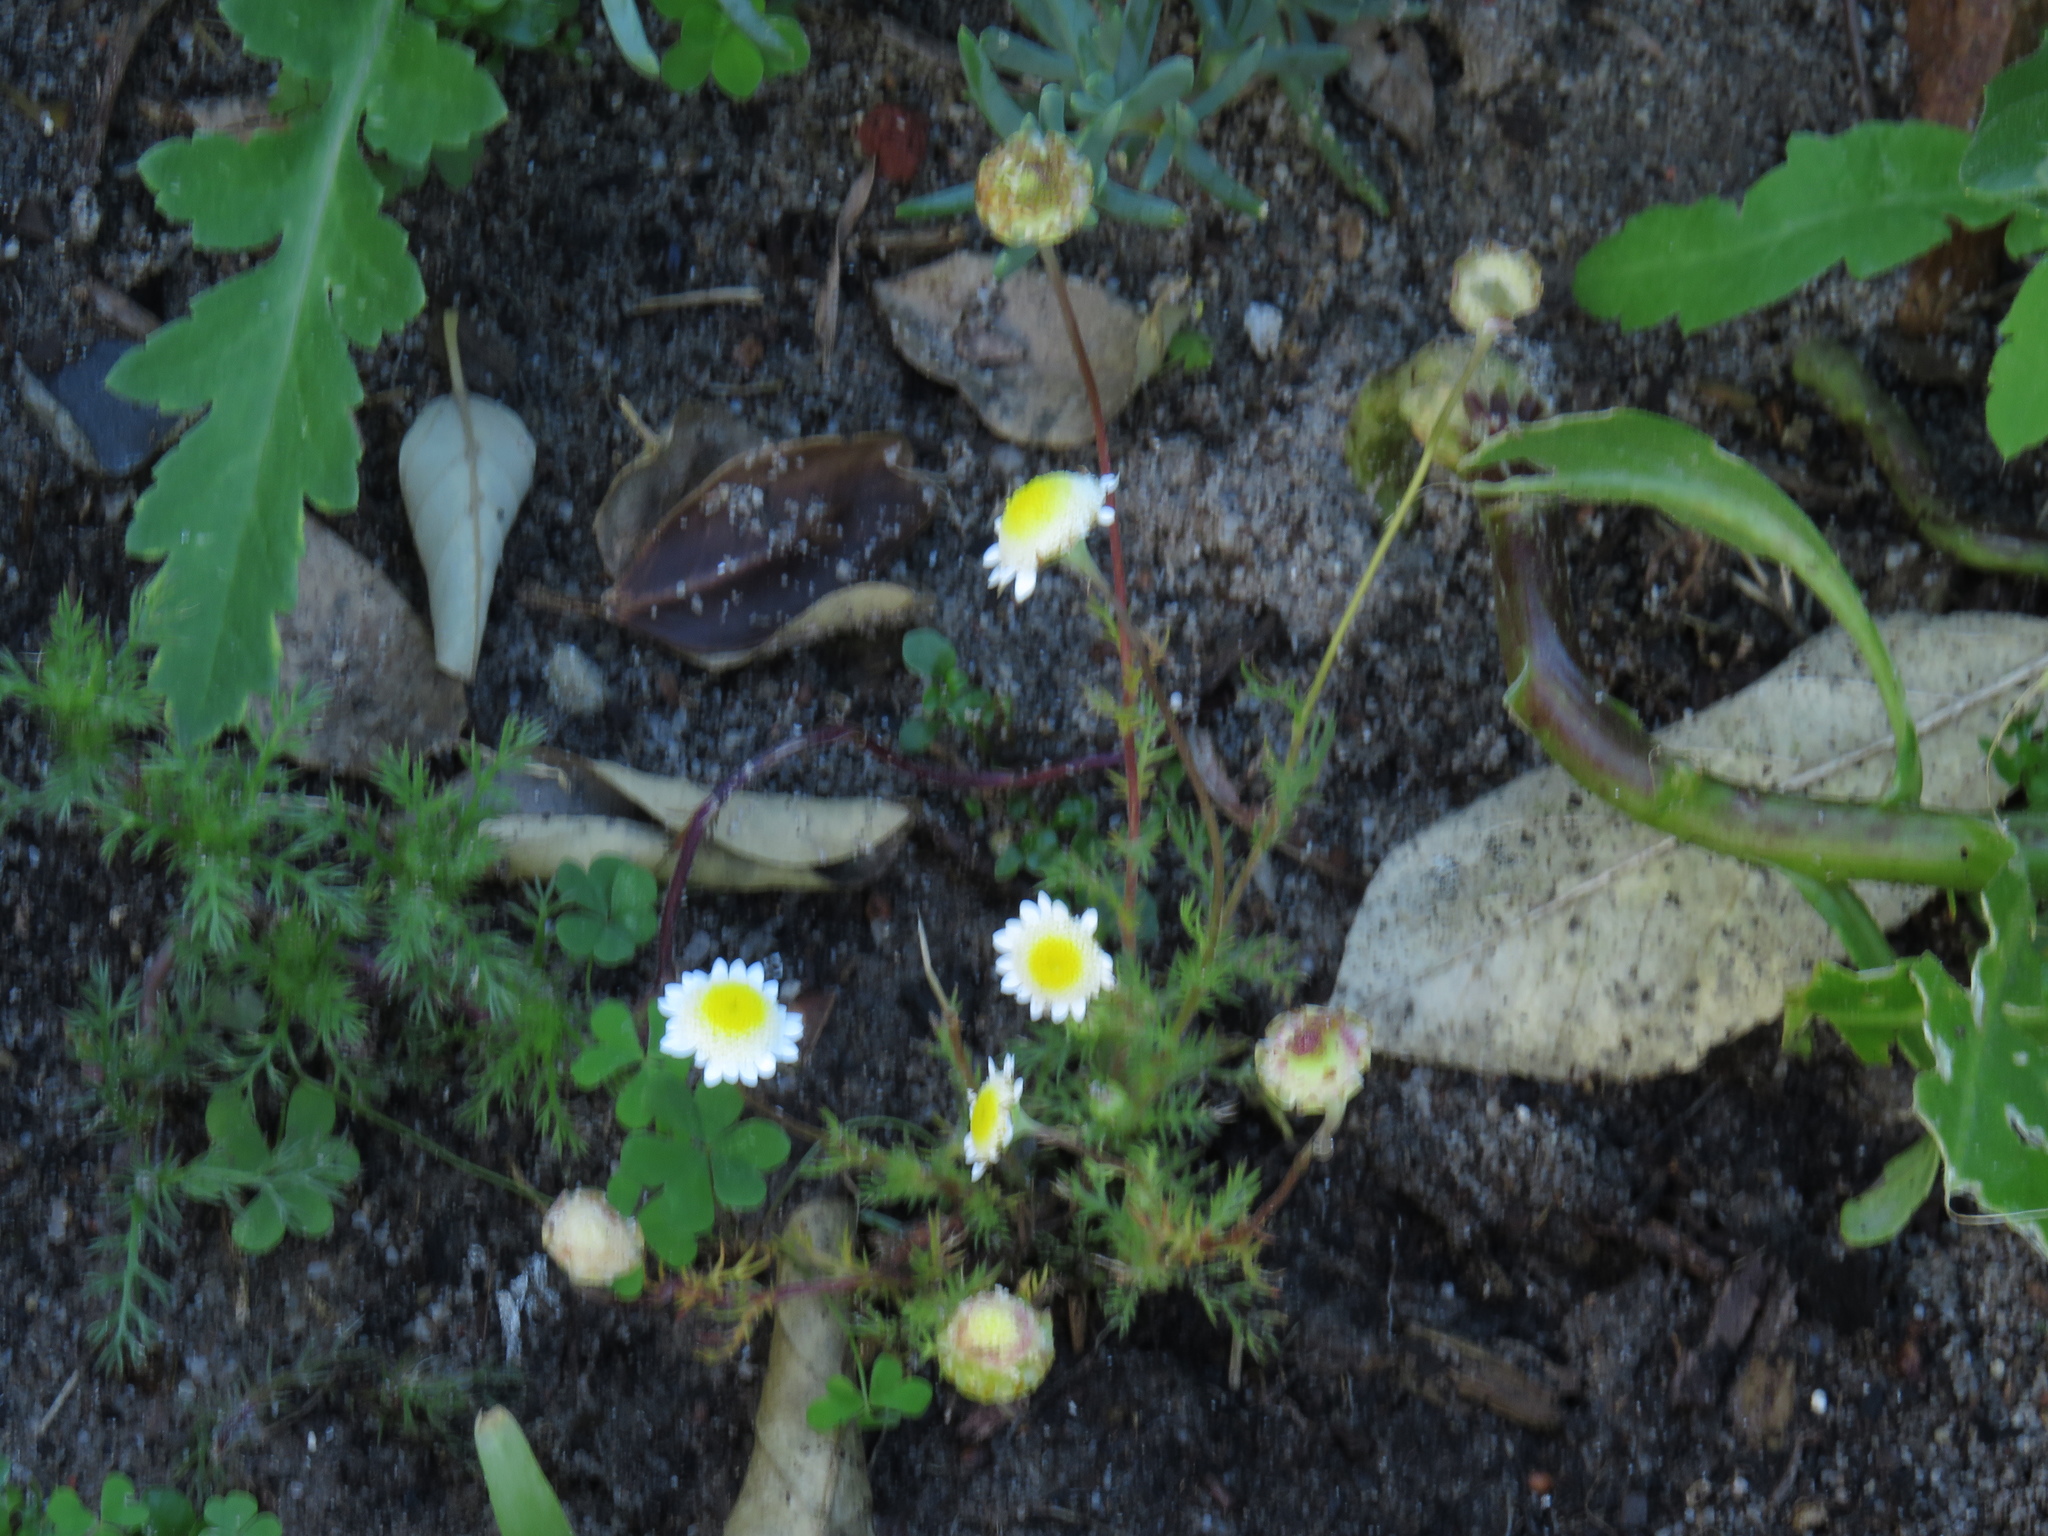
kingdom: Plantae
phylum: Tracheophyta
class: Magnoliopsida
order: Asterales
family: Asteraceae
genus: Cotula
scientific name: Cotula turbinata
